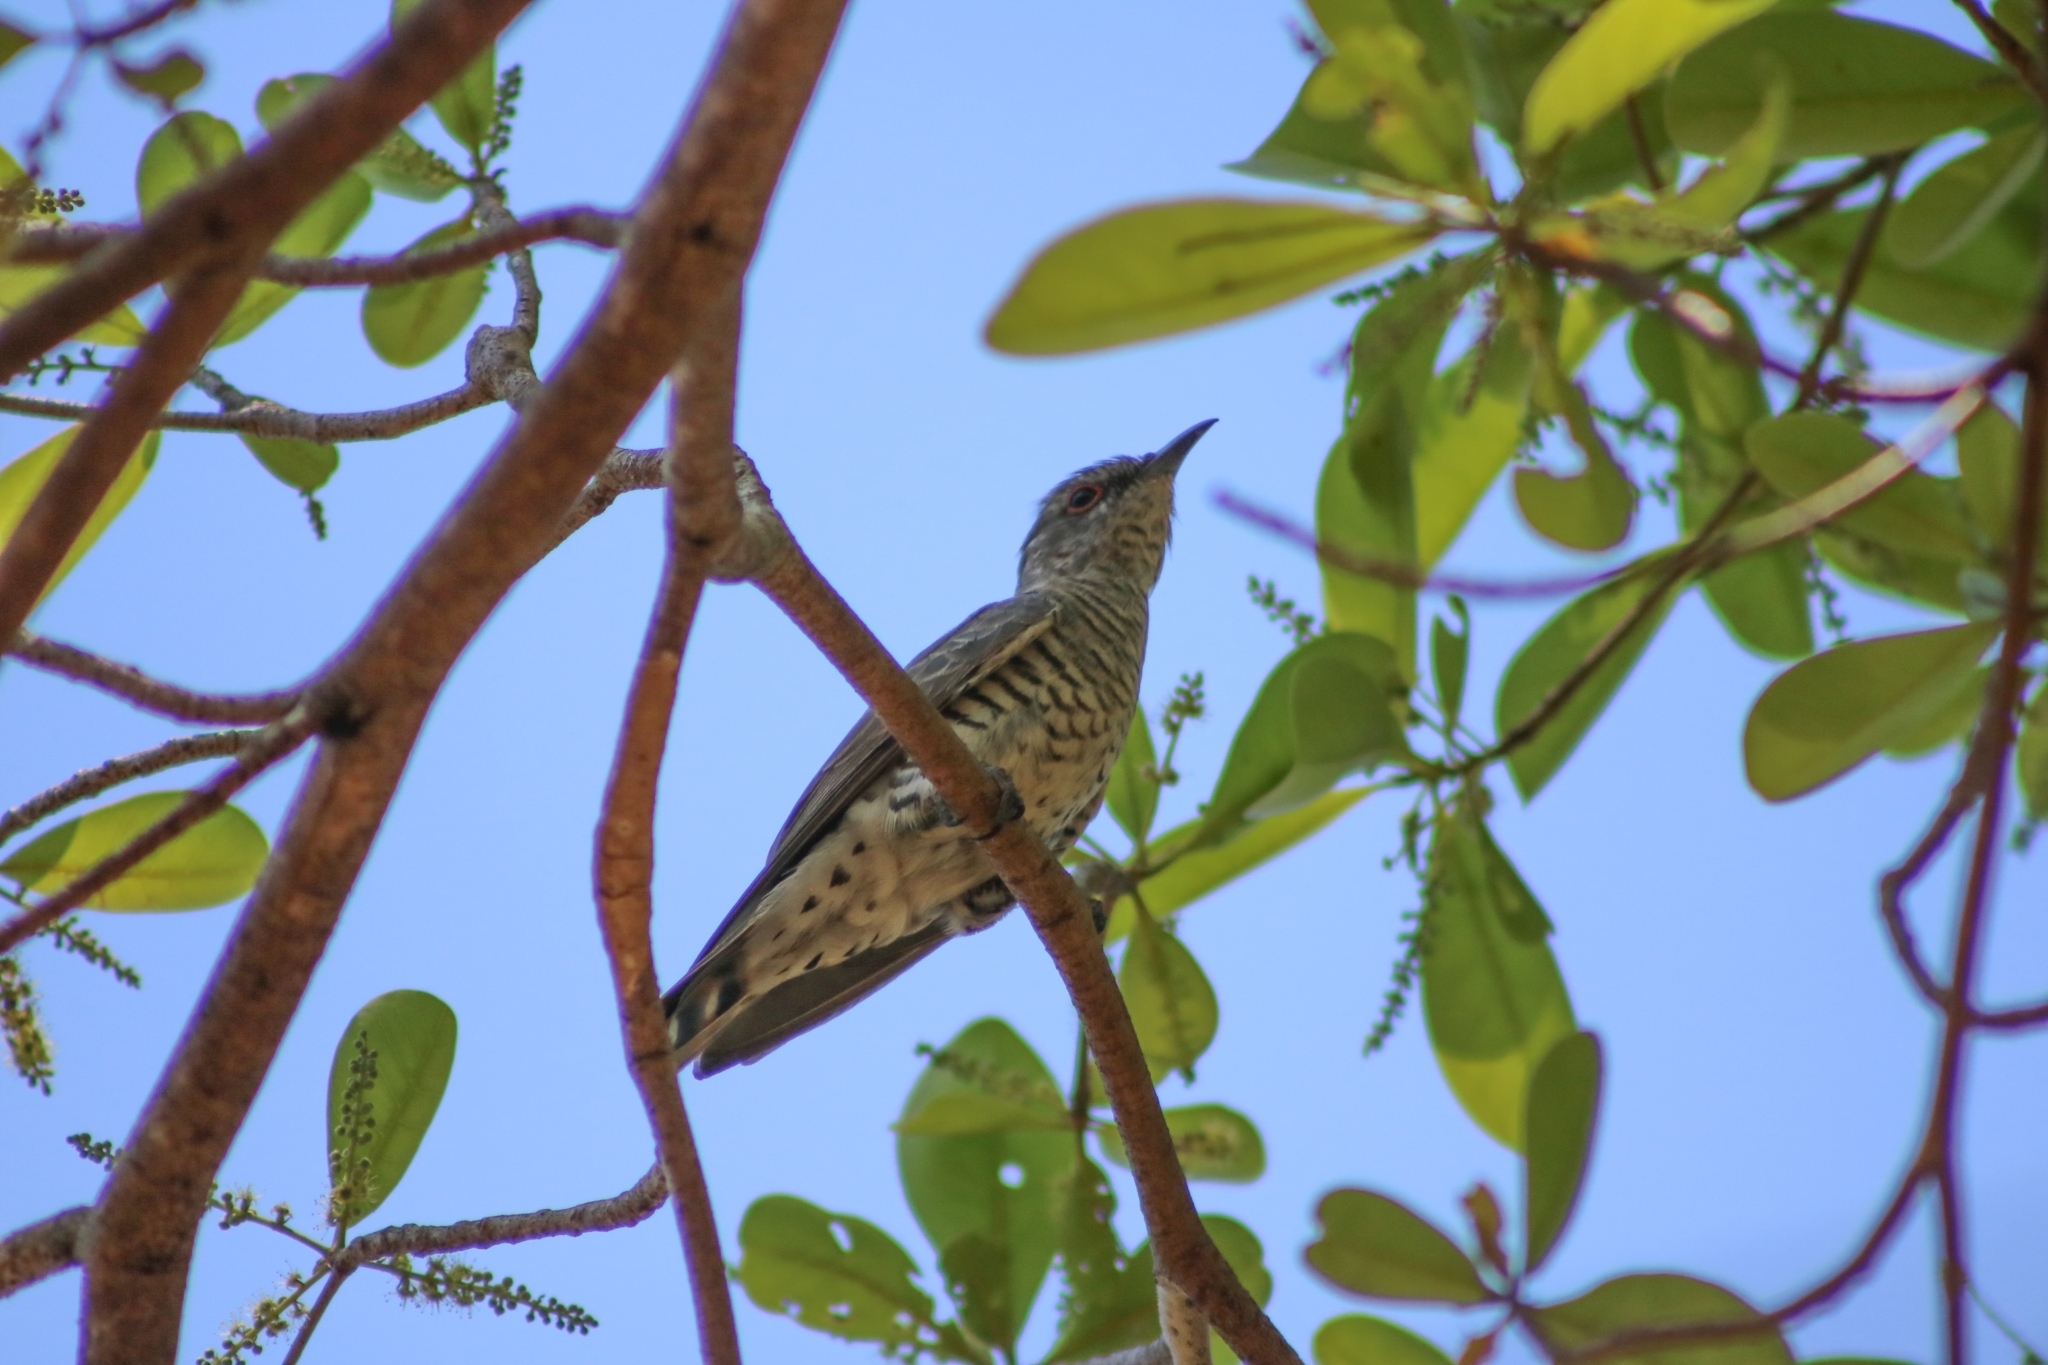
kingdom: Animalia
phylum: Chordata
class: Aves
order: Cuculiformes
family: Cuculidae
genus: Chrysococcyx
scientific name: Chrysococcyx minutillus
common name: Little bronze cuckoo
